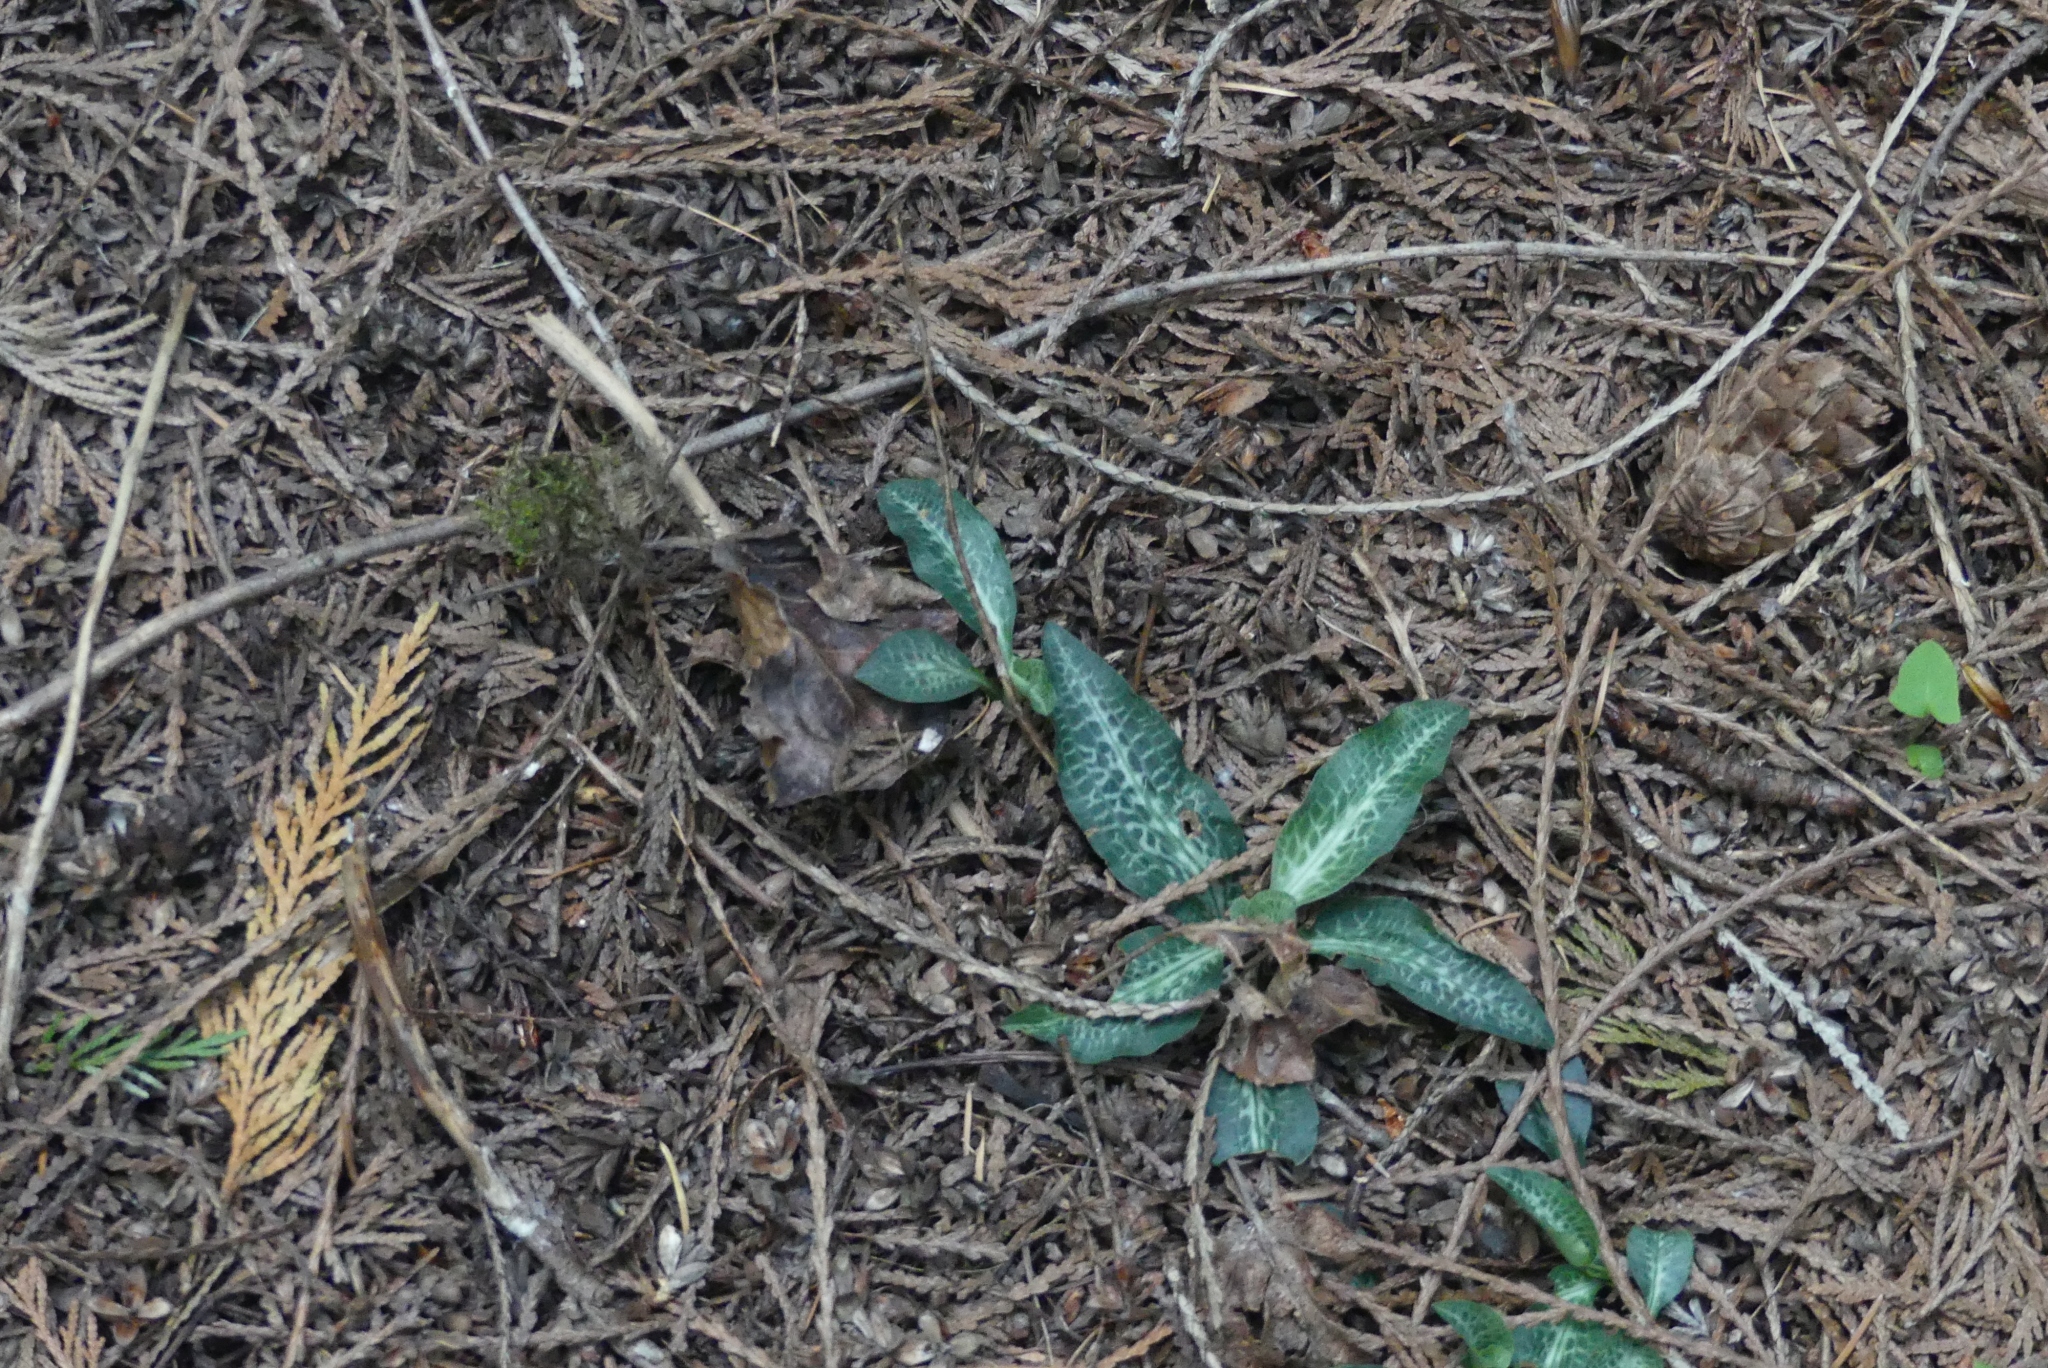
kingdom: Plantae
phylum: Tracheophyta
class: Liliopsida
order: Asparagales
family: Orchidaceae
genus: Goodyera
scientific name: Goodyera oblongifolia
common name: Giant rattlesnake-plantain
